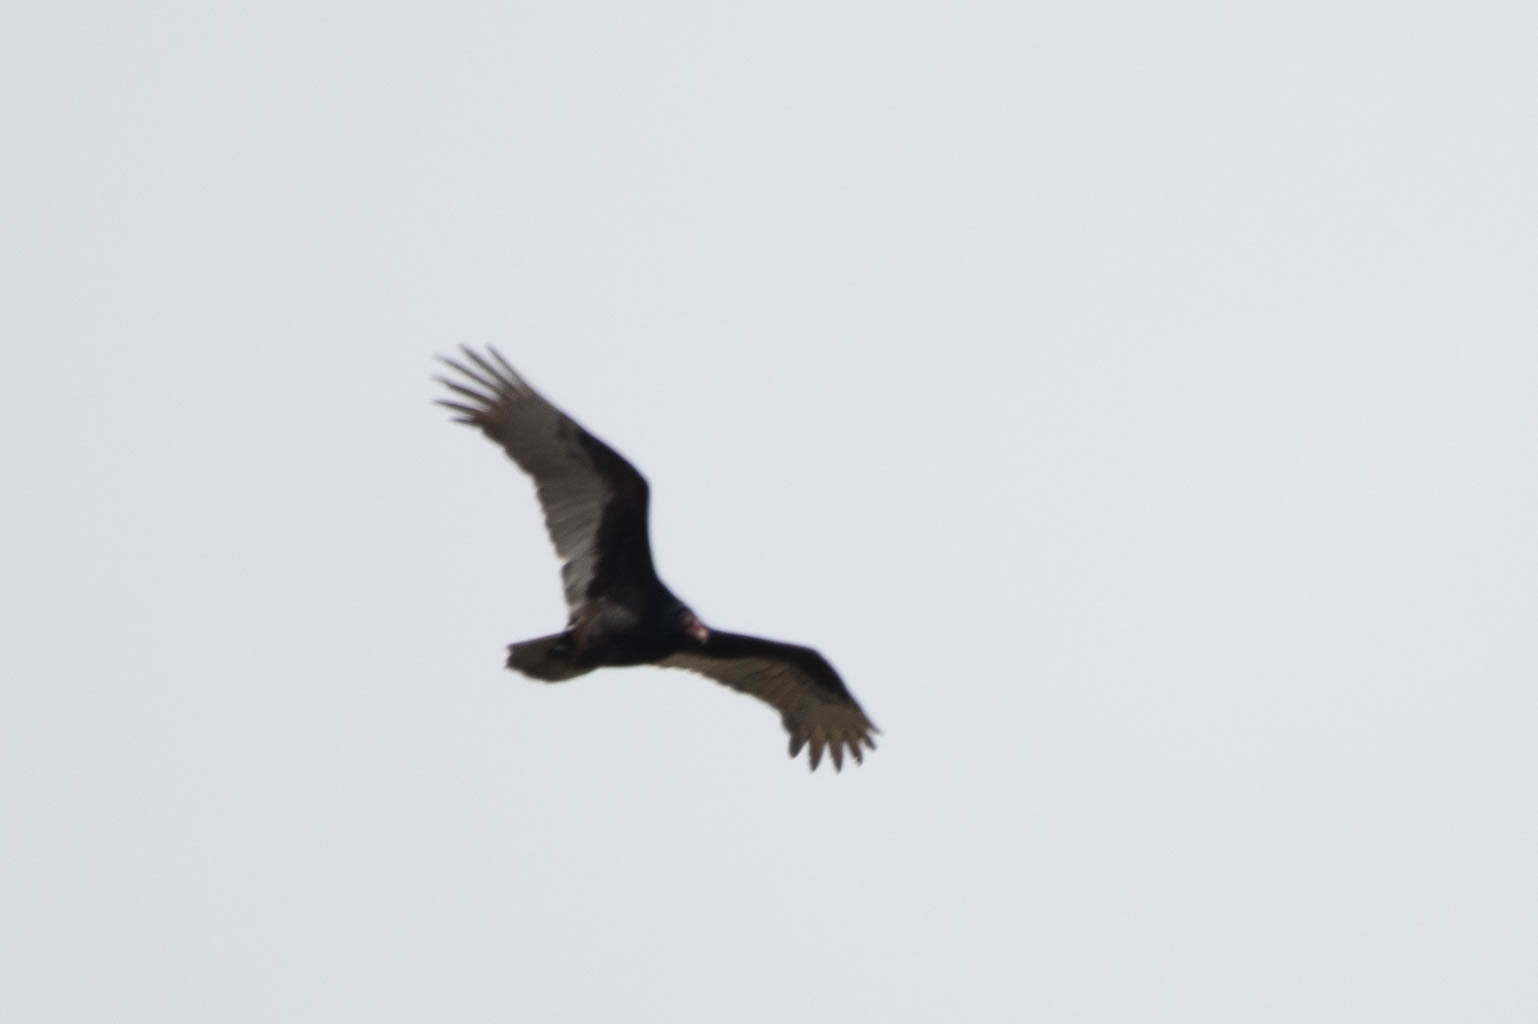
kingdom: Animalia
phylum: Chordata
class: Aves
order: Accipitriformes
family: Cathartidae
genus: Cathartes
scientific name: Cathartes aura
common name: Turkey vulture
